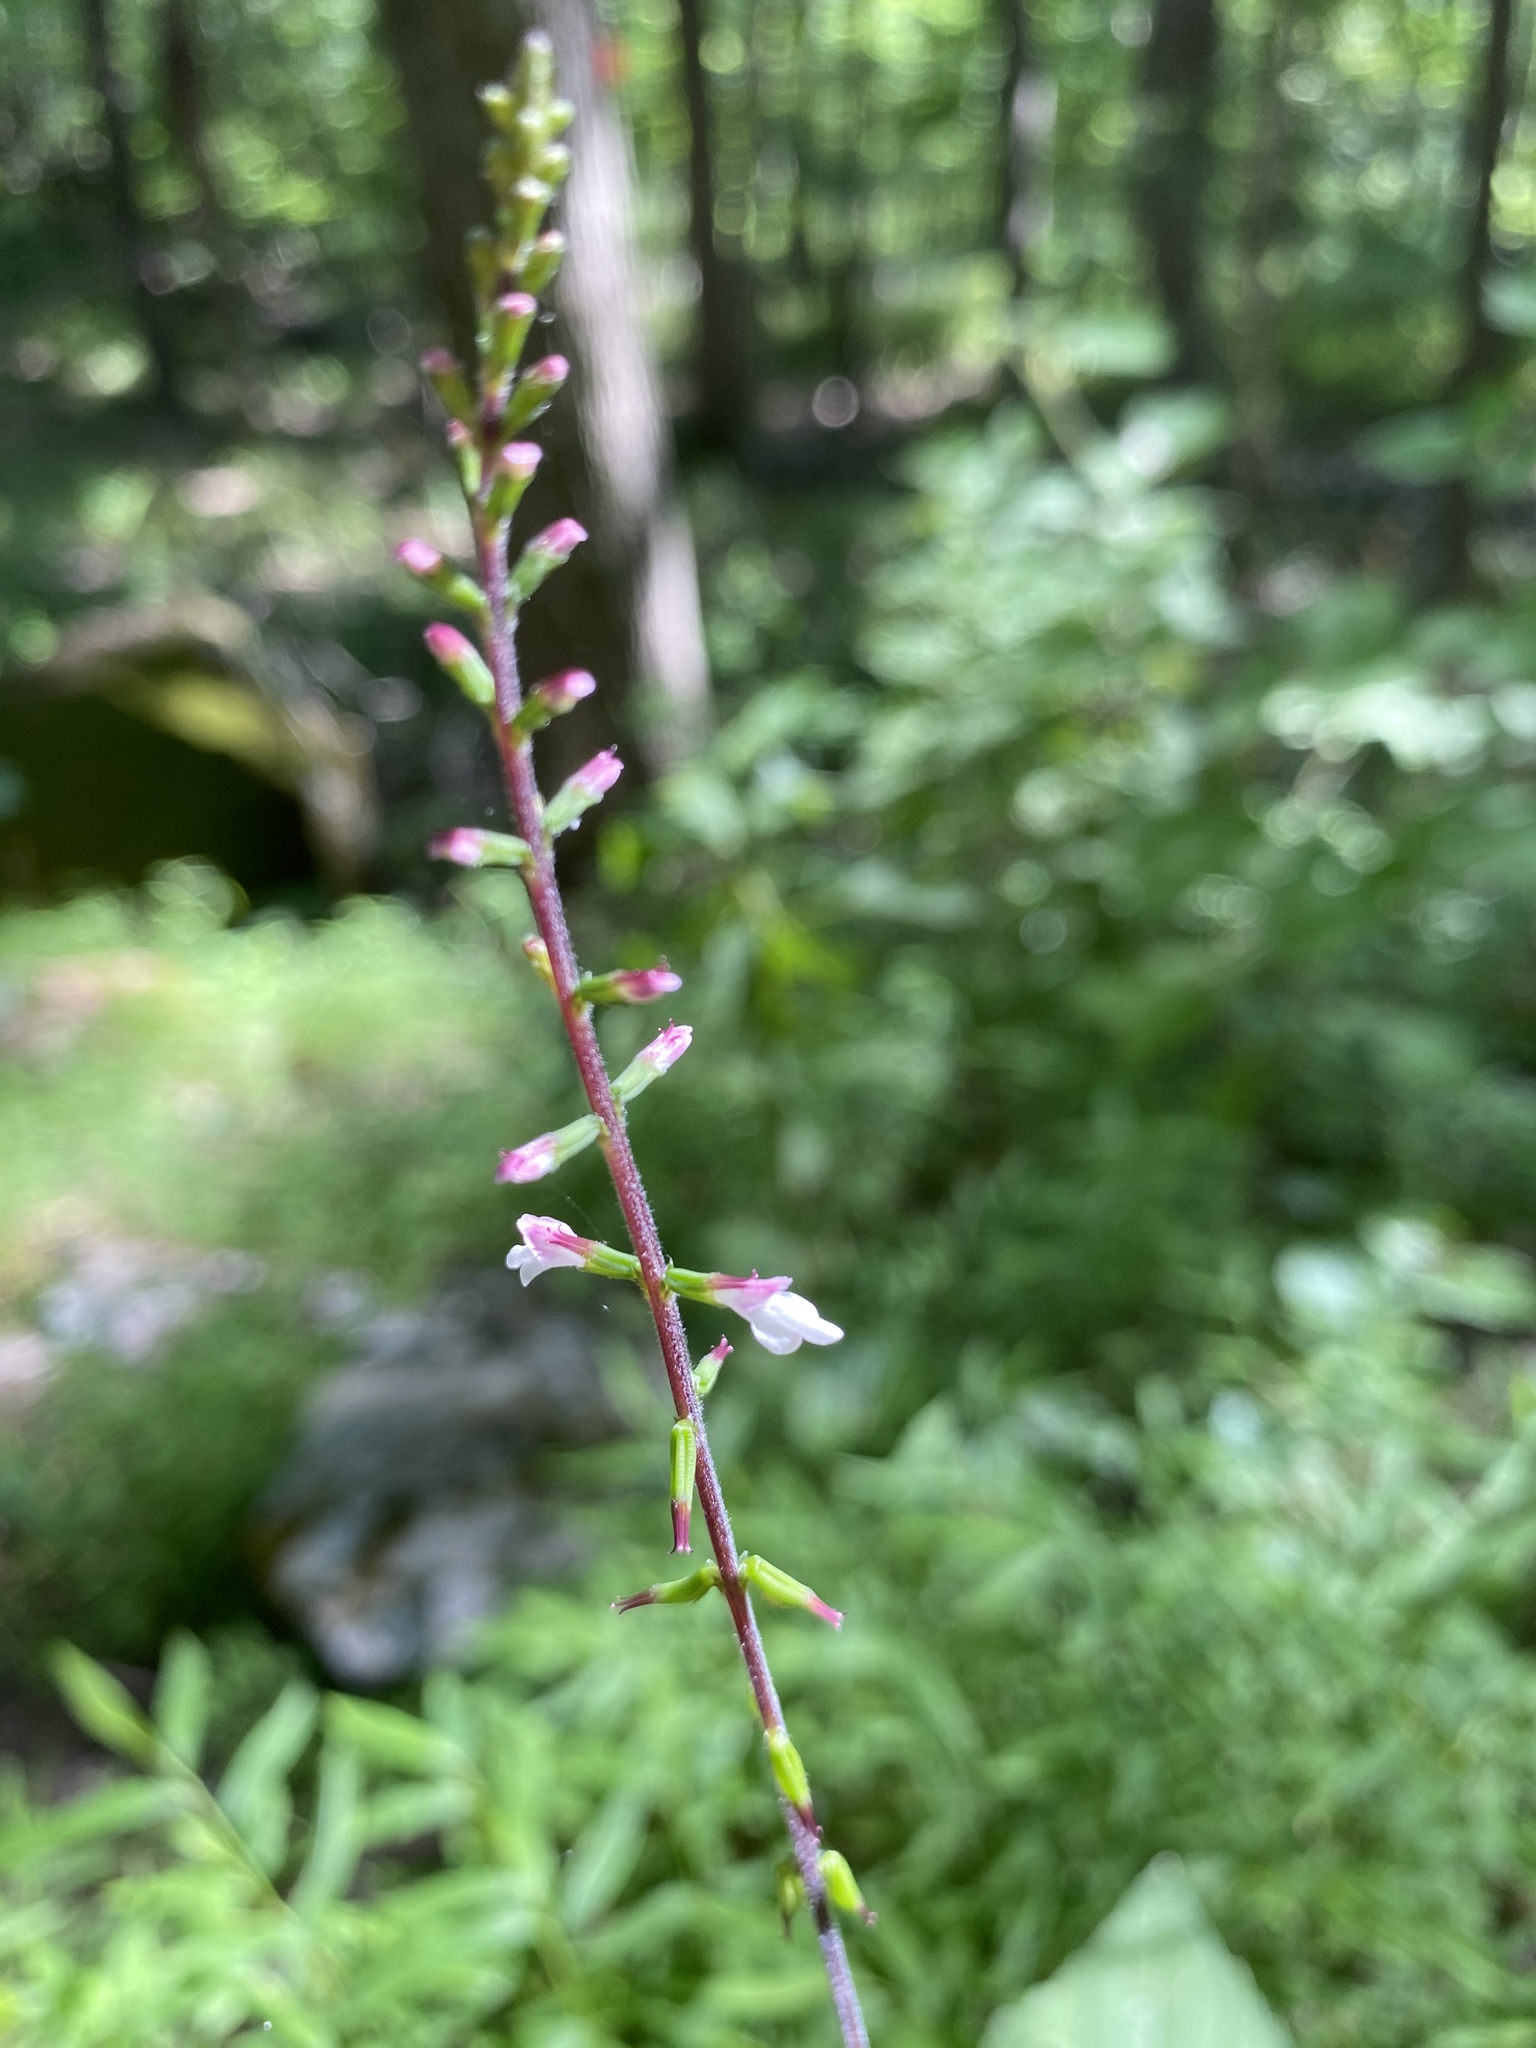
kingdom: Plantae
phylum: Tracheophyta
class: Magnoliopsida
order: Lamiales
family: Phrymaceae
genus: Phryma
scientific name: Phryma leptostachya
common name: American lopseed
